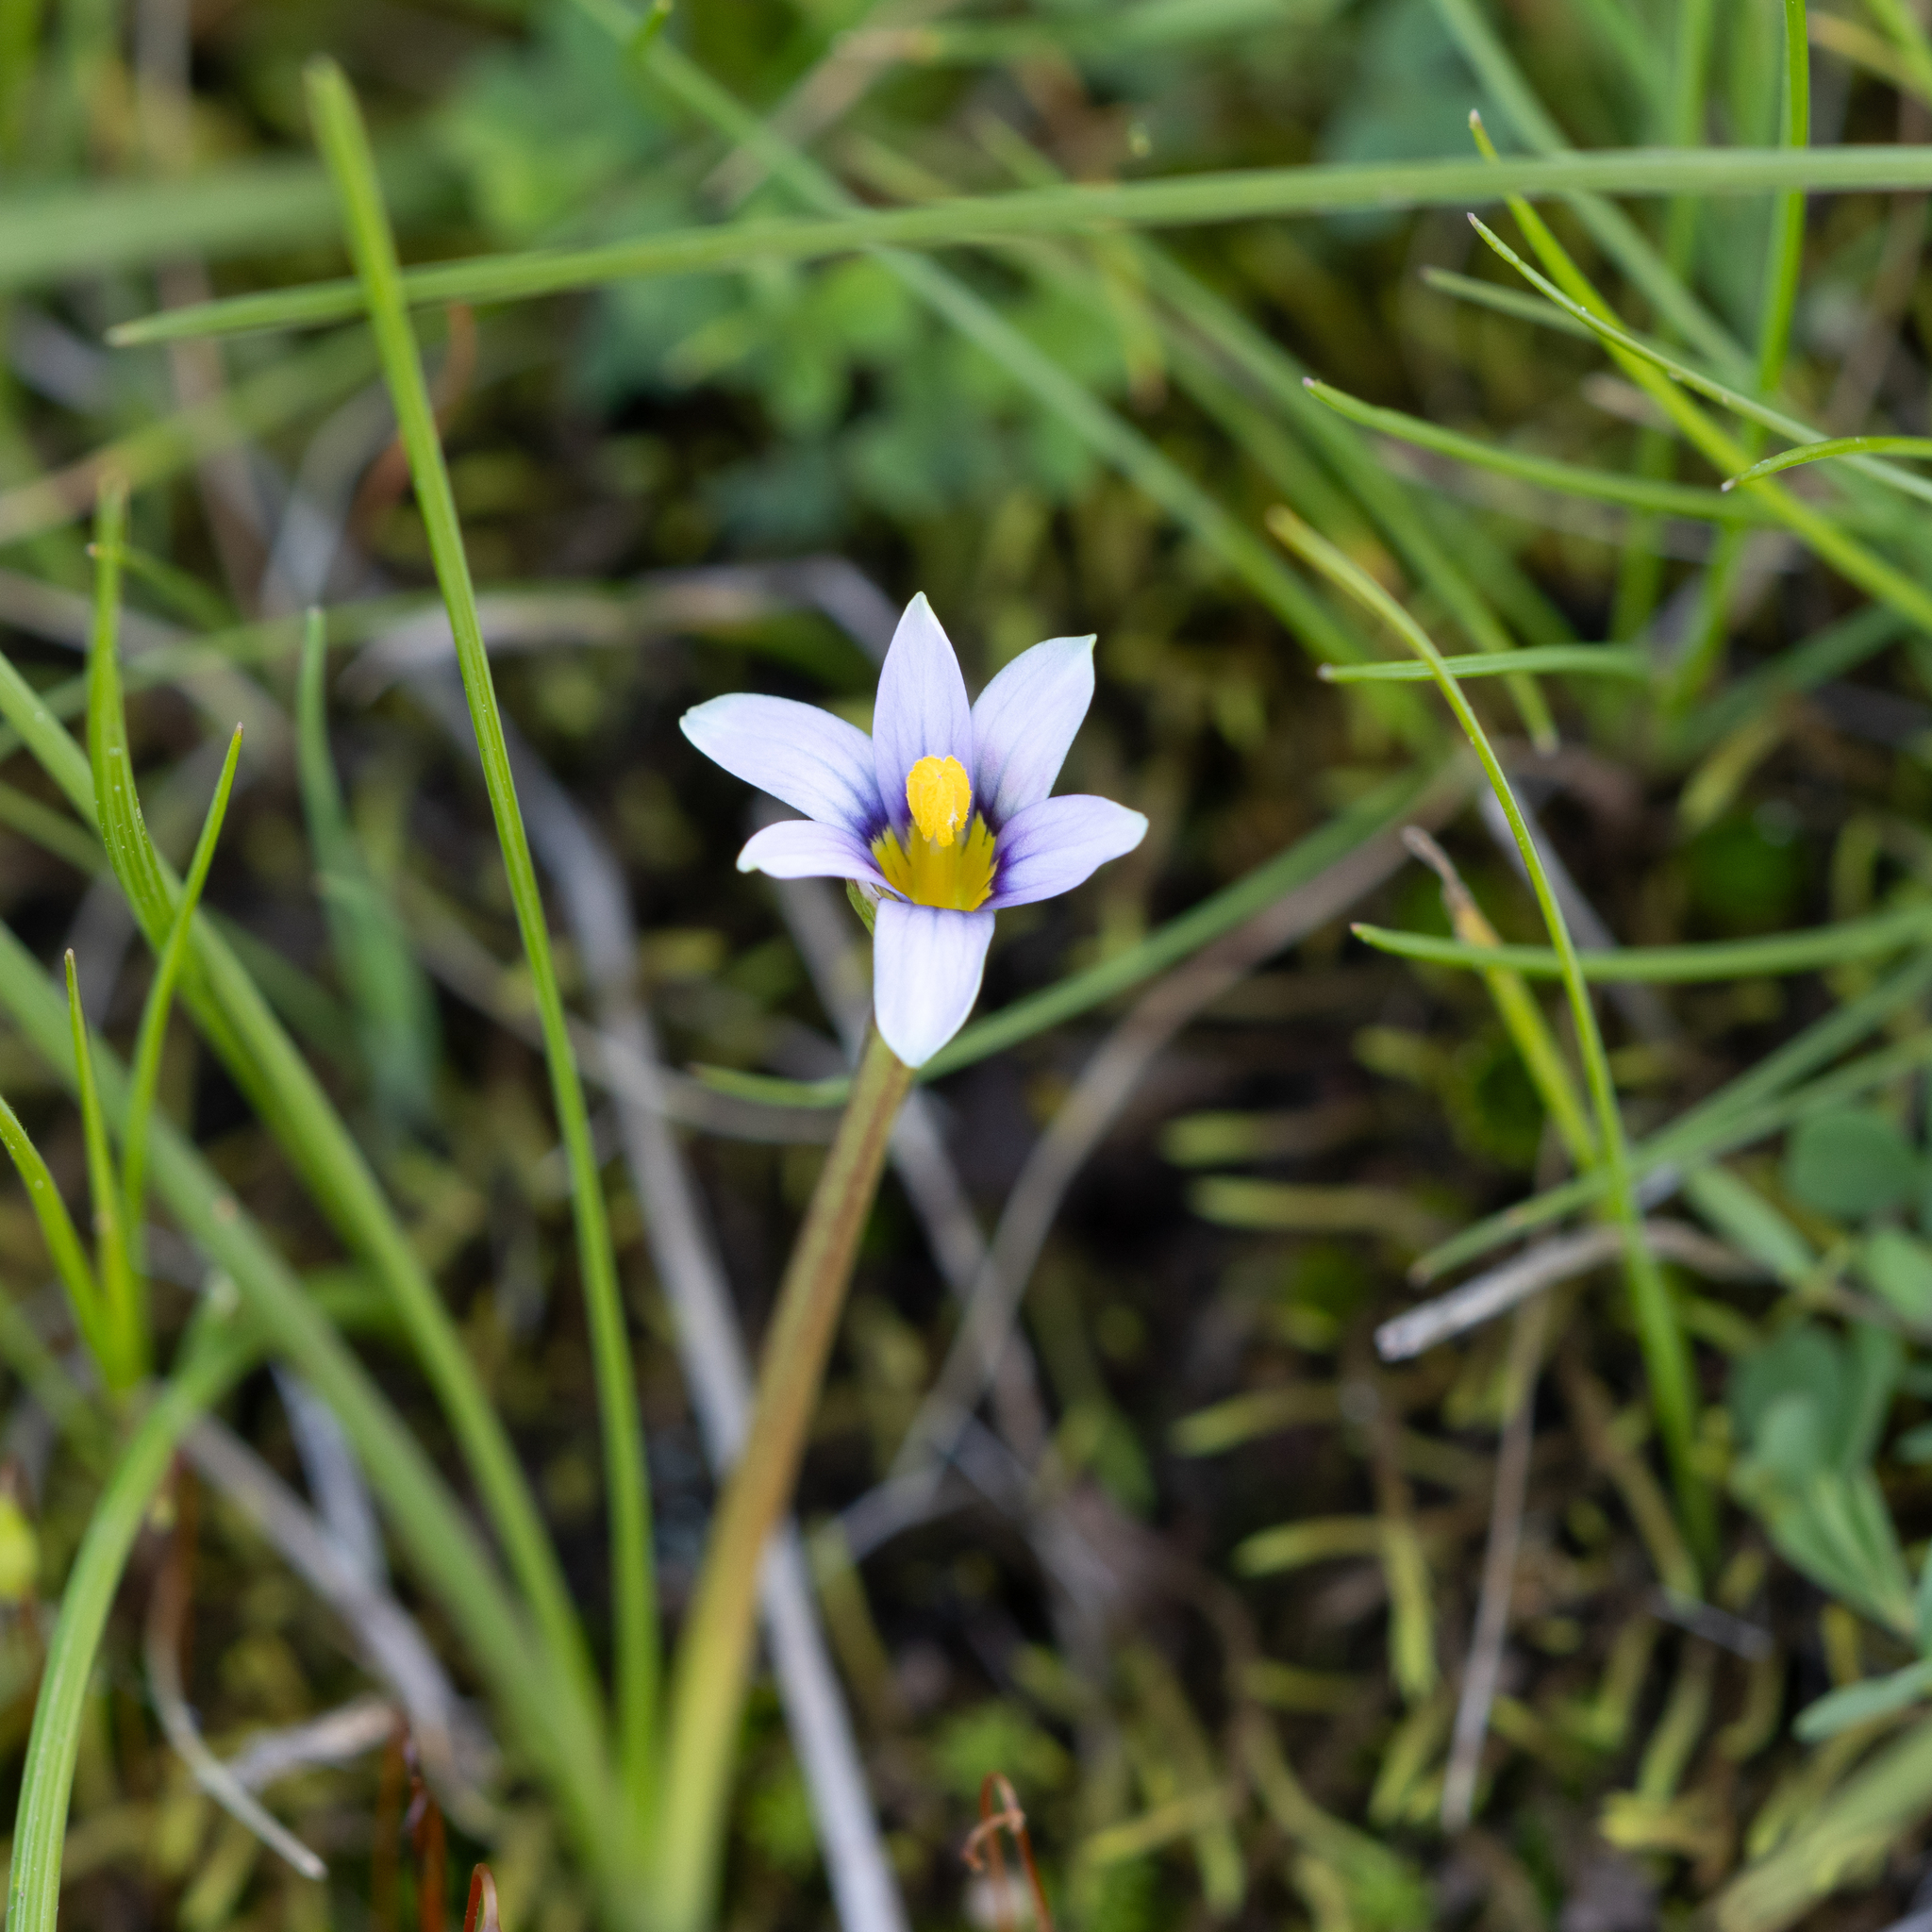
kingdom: Plantae
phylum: Tracheophyta
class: Liliopsida
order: Asparagales
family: Iridaceae
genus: Romulea
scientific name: Romulea minutiflora
